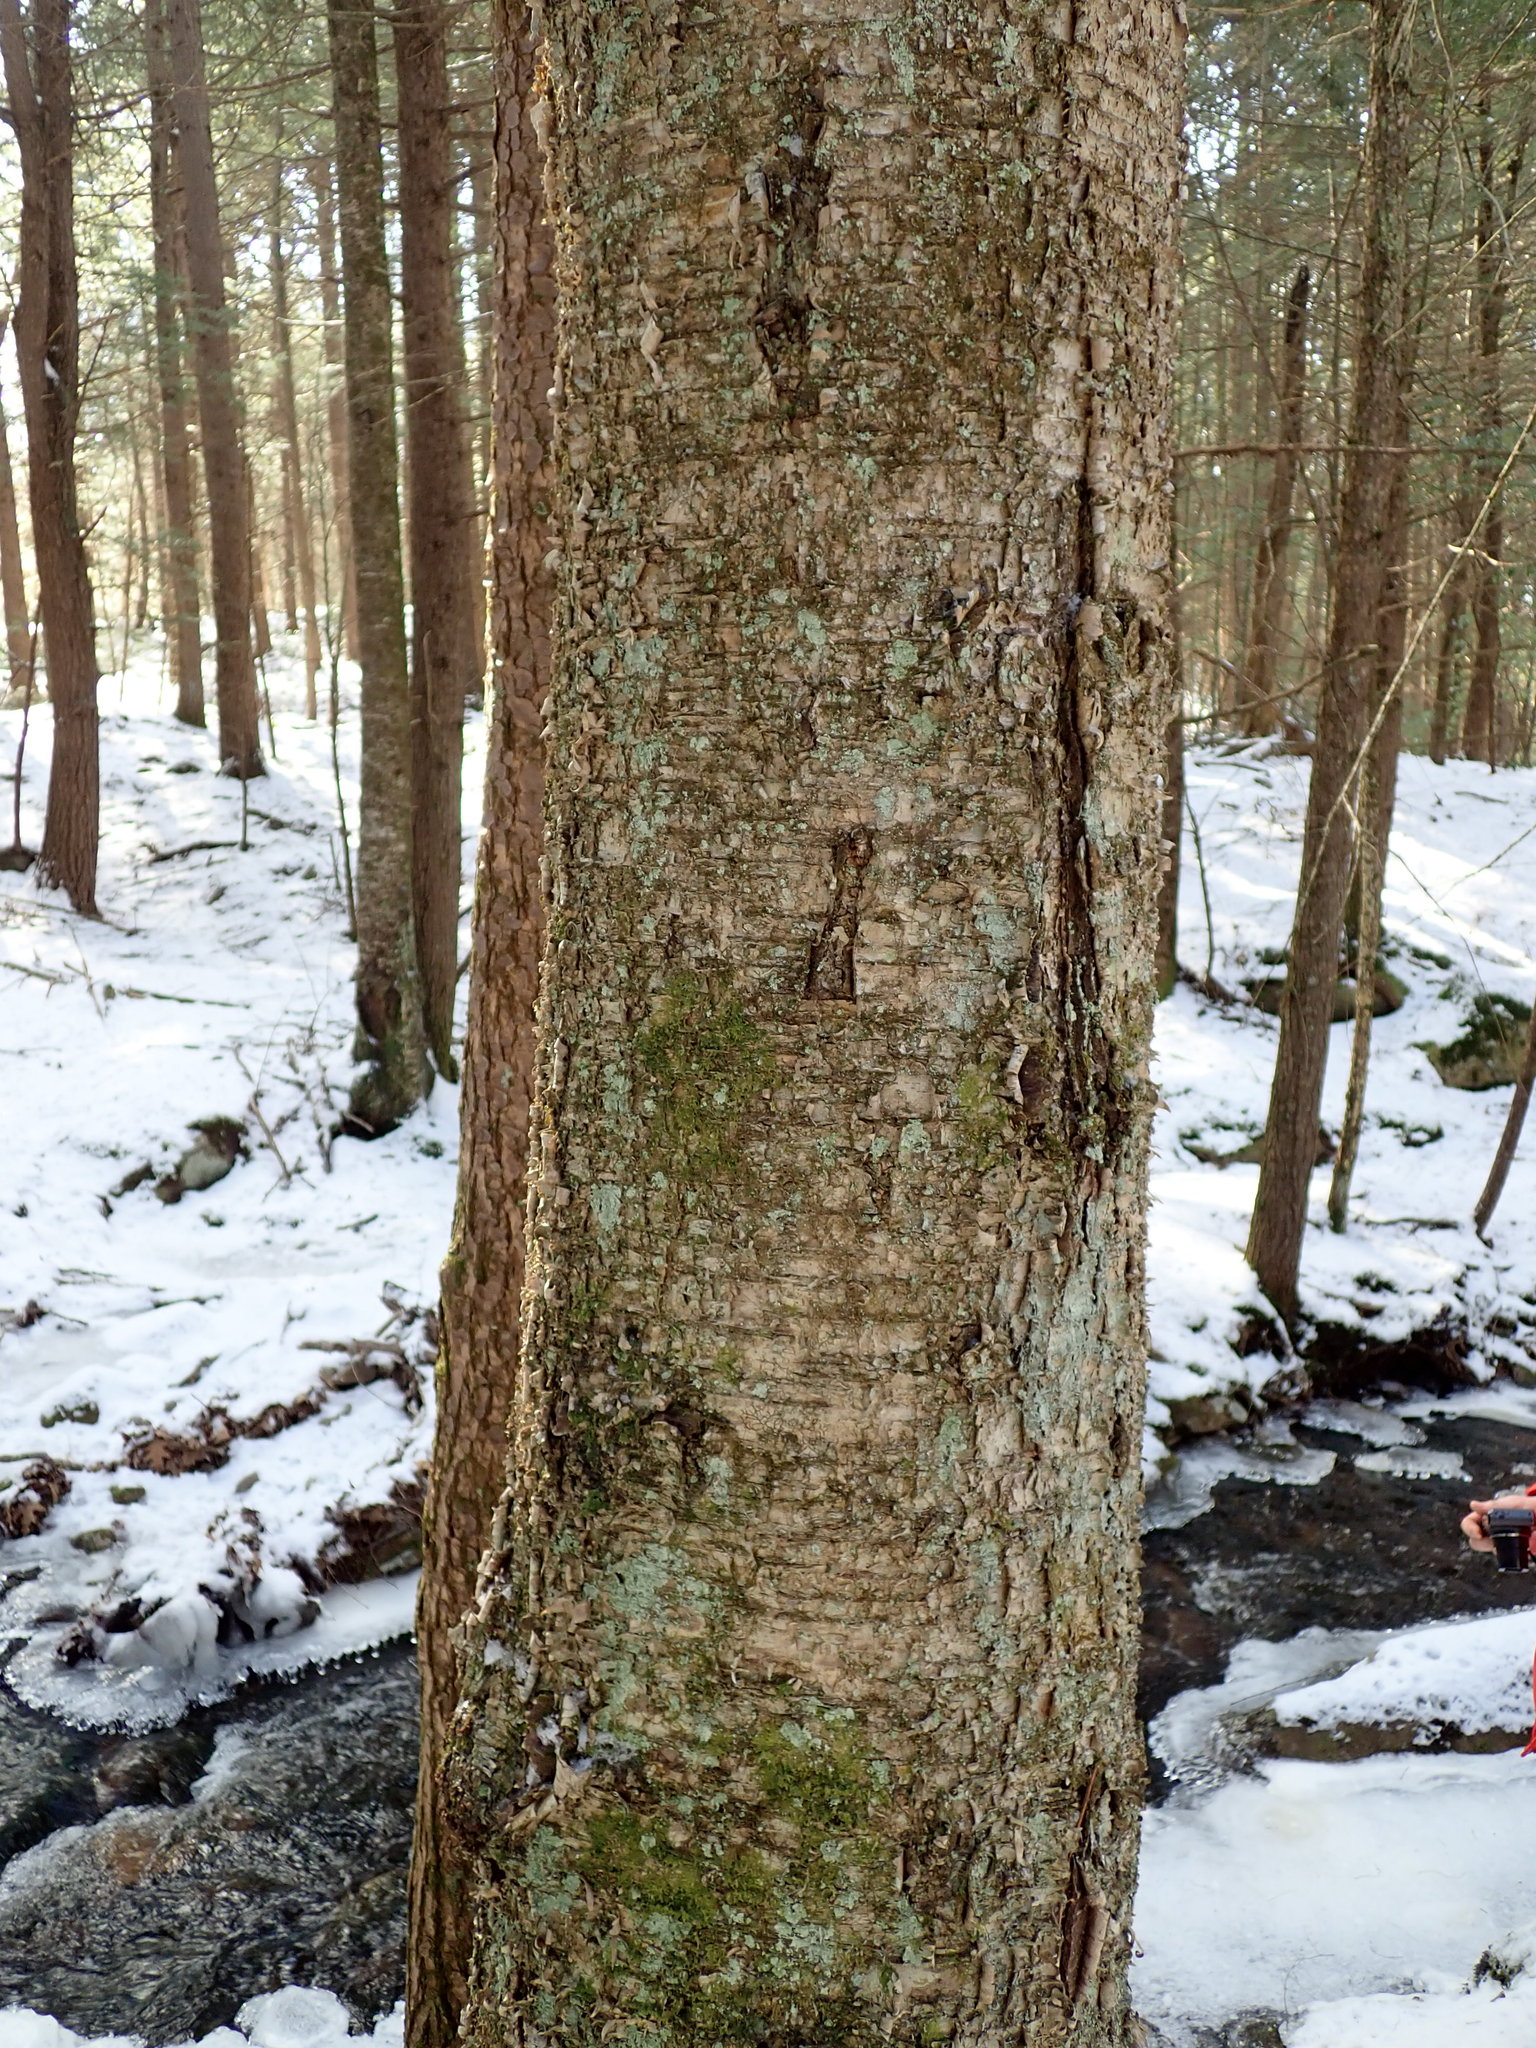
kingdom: Plantae
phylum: Tracheophyta
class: Magnoliopsida
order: Fagales
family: Betulaceae
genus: Betula
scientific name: Betula alleghaniensis
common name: Yellow birch
